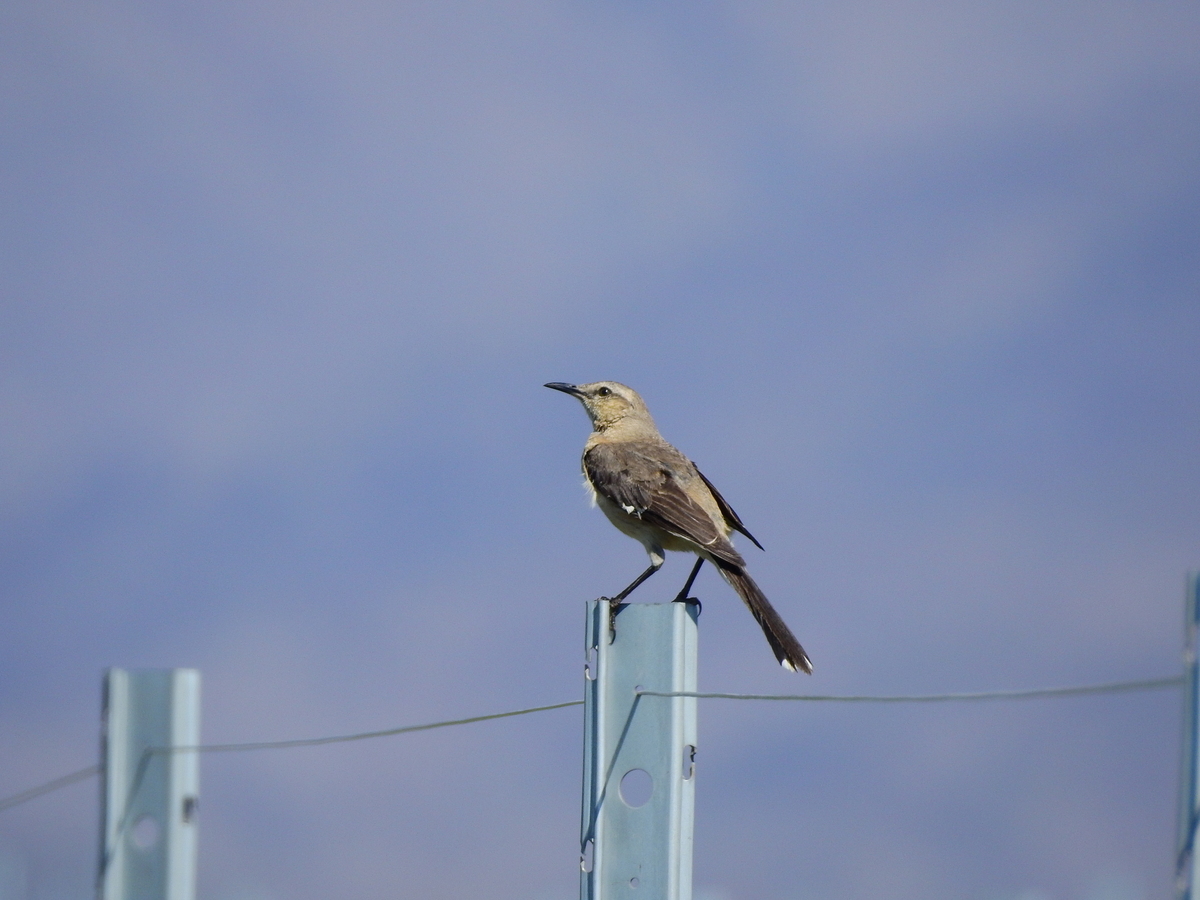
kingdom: Animalia
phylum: Chordata
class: Aves
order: Passeriformes
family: Mimidae
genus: Mimus
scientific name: Mimus patagonicus
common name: Patagonian mockingbird
